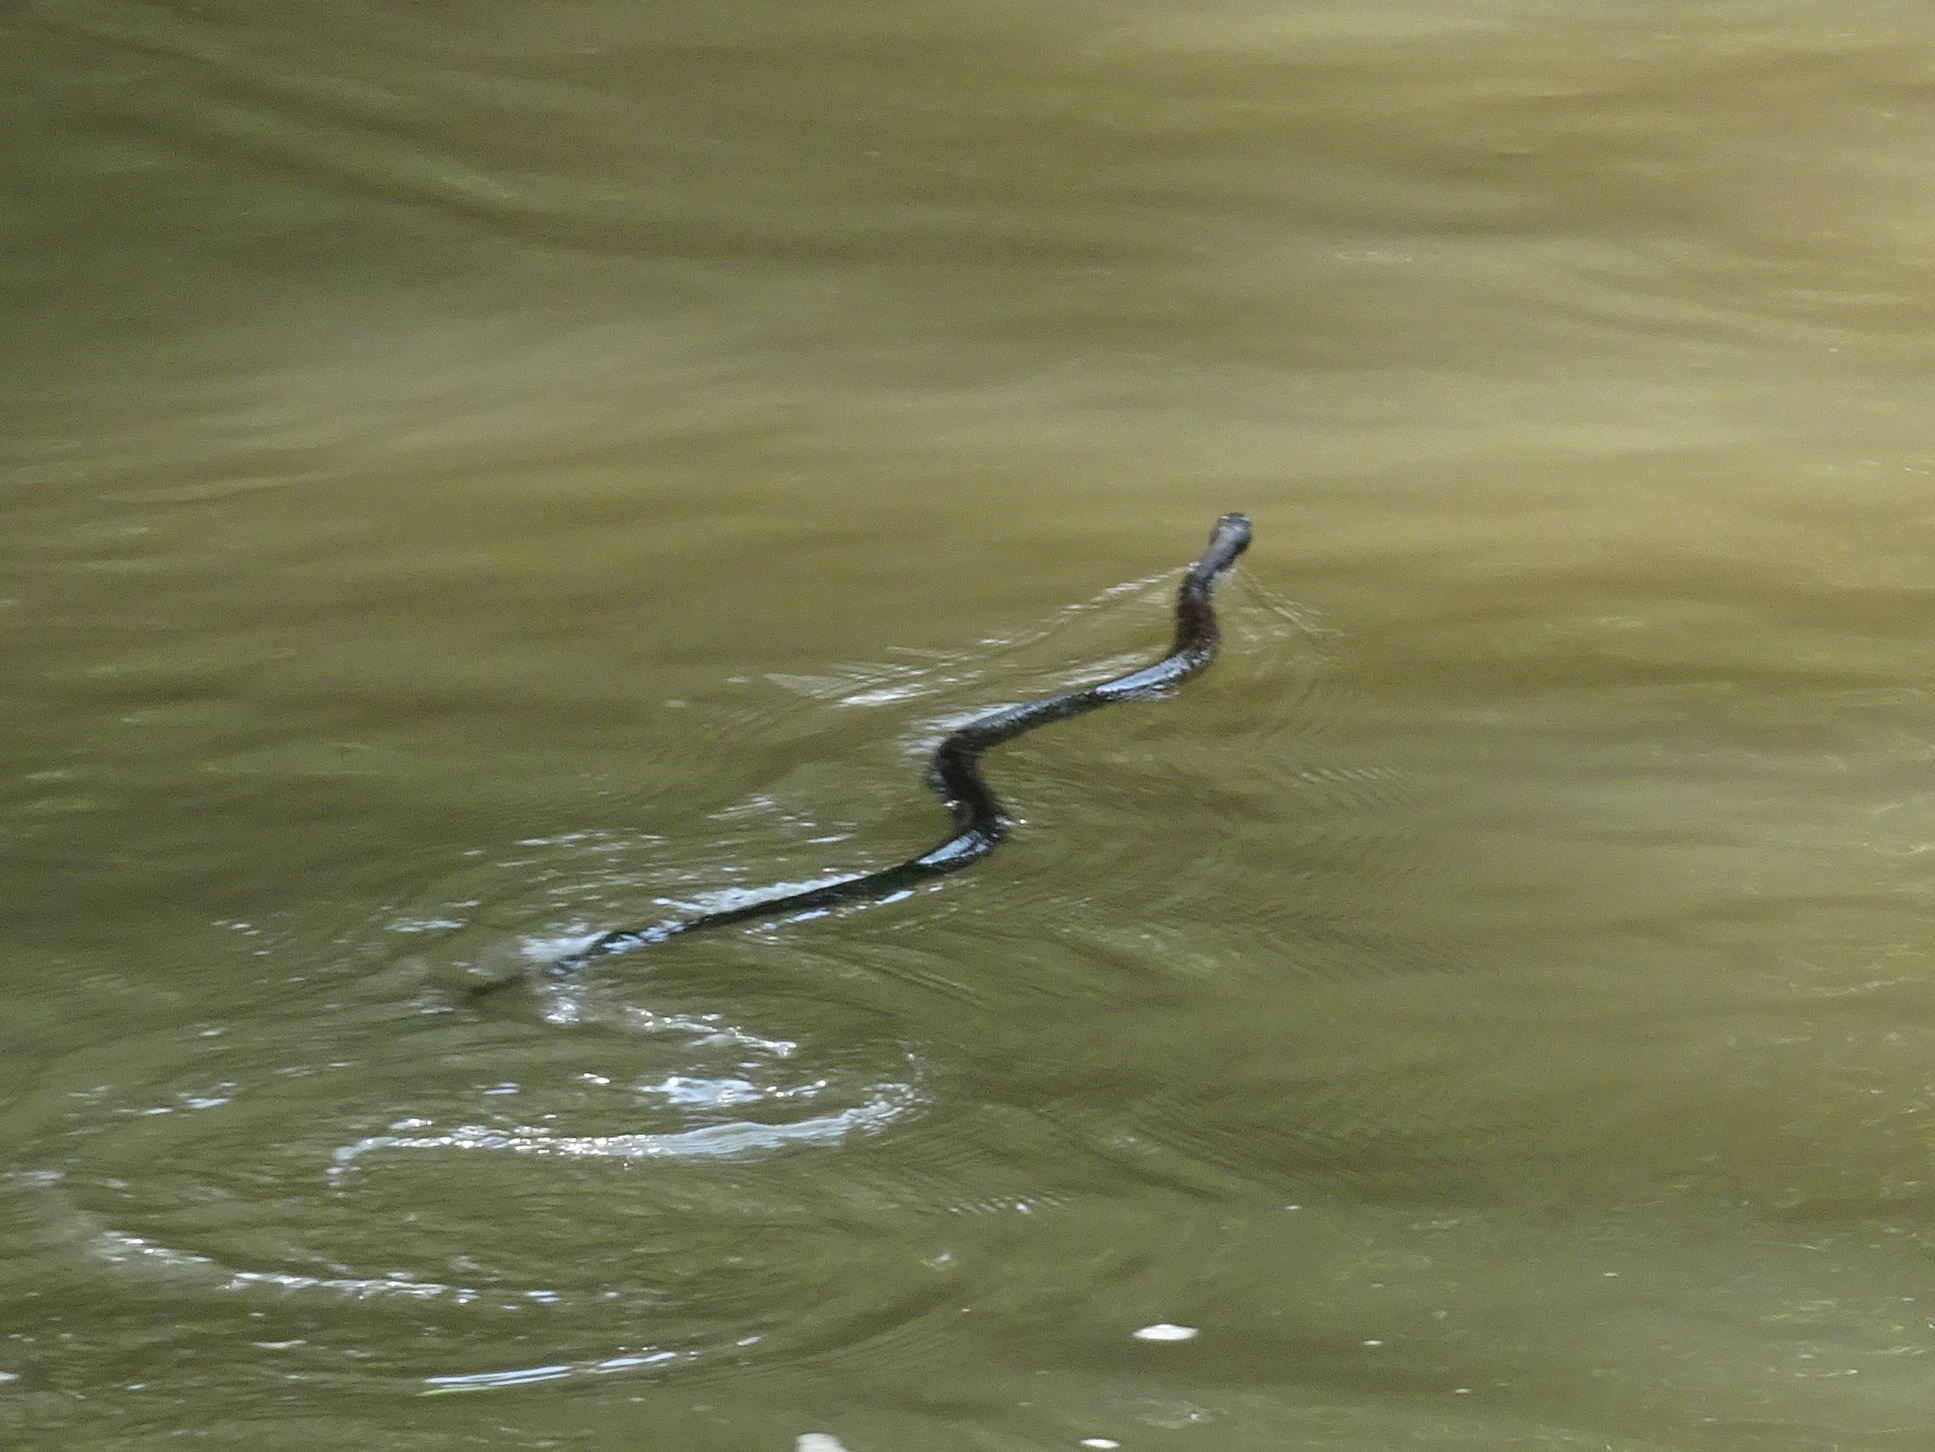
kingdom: Animalia
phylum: Chordata
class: Squamata
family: Colubridae
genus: Pantherophis
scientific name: Pantherophis obsoletus
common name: Black rat snake
